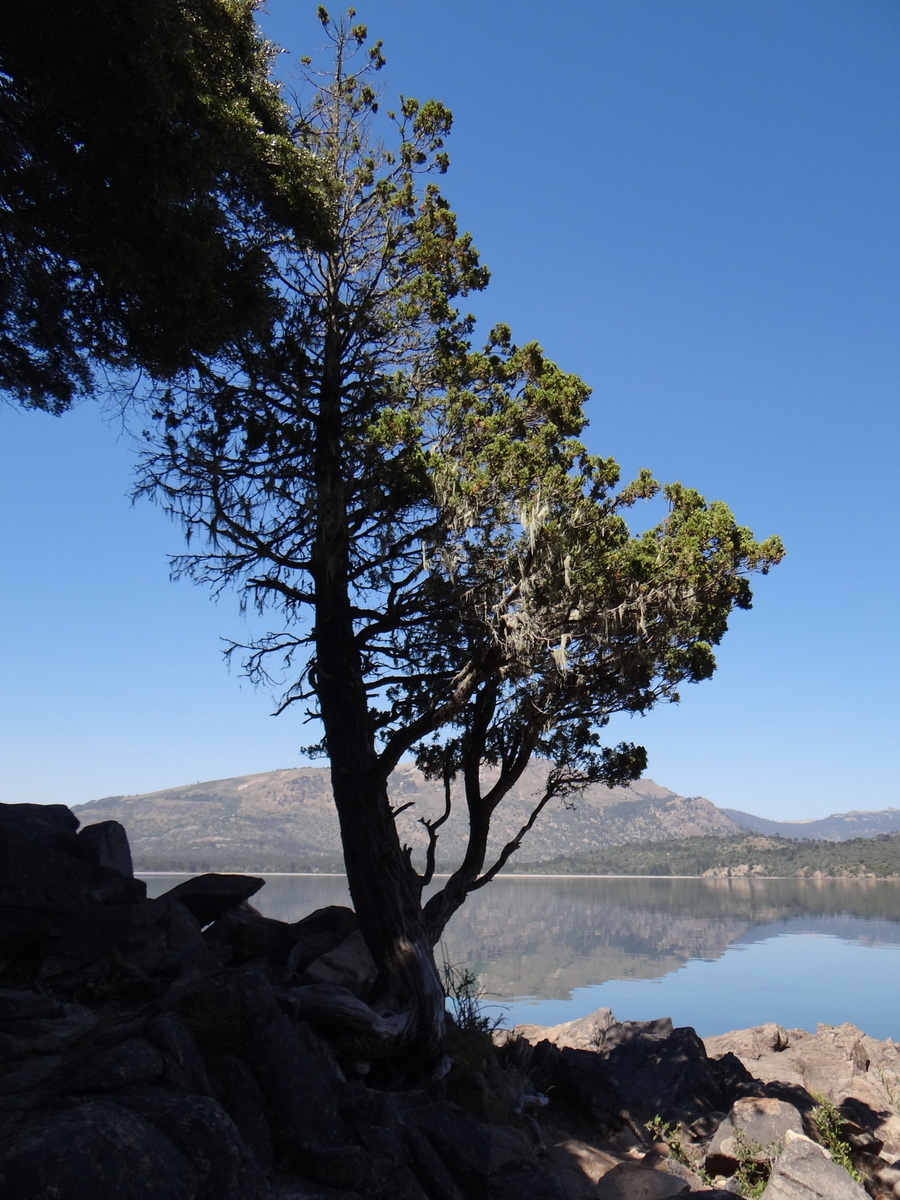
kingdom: Plantae
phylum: Tracheophyta
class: Pinopsida
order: Pinales
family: Cupressaceae
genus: Austrocedrus
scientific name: Austrocedrus chilensis
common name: Chilean incense-cedar
